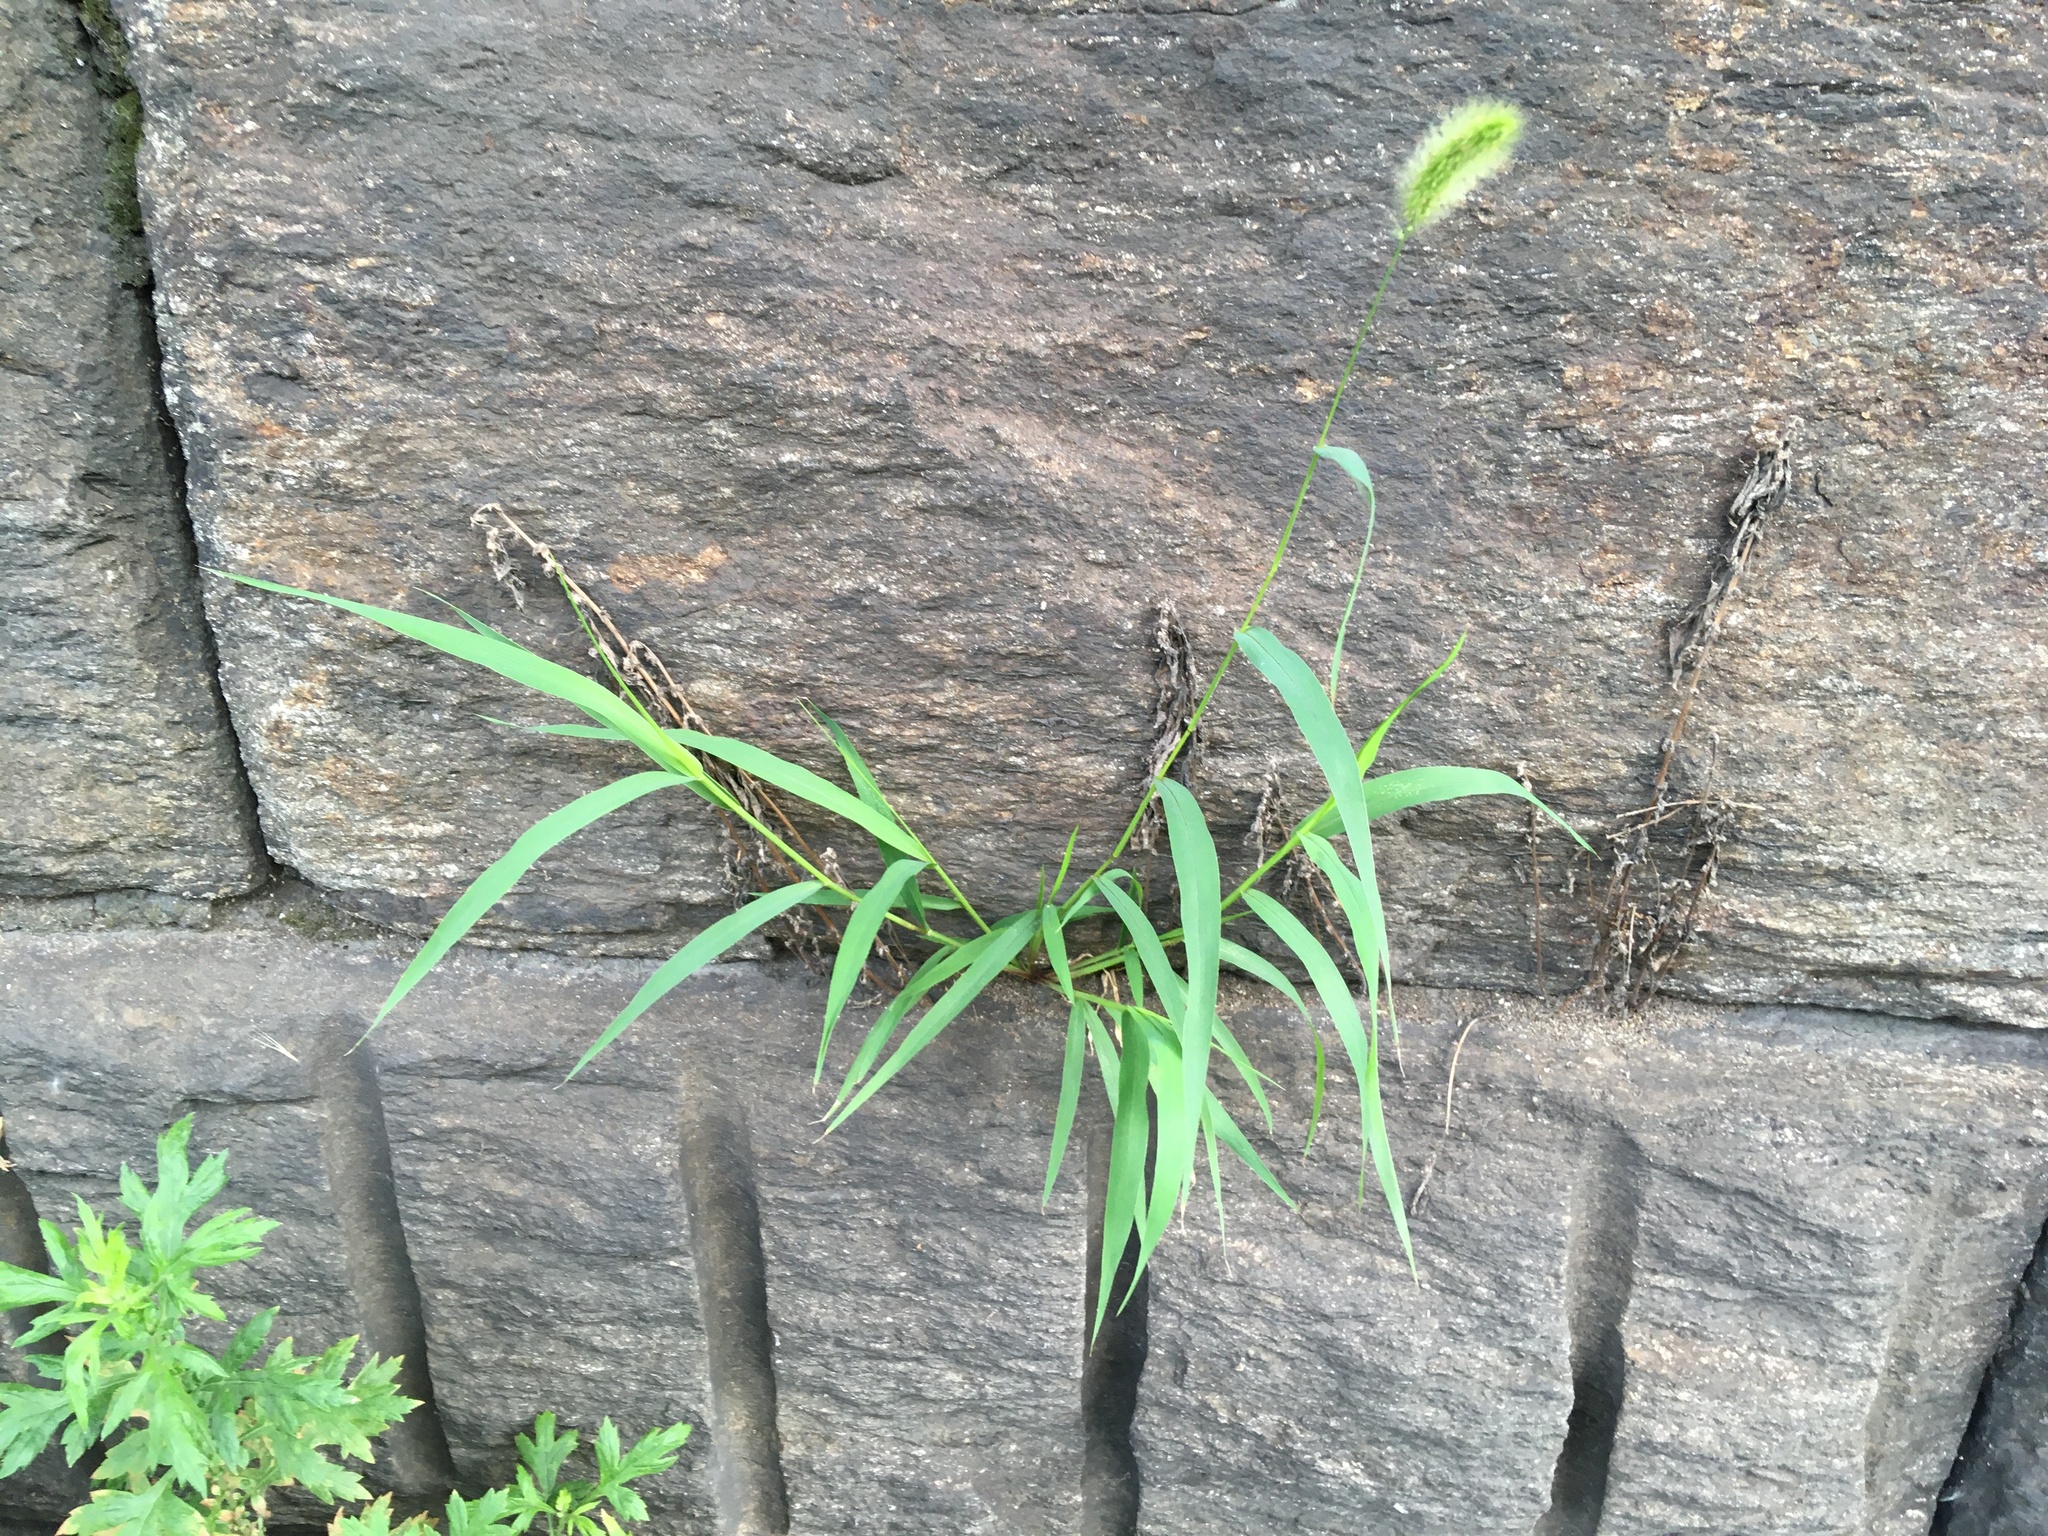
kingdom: Plantae
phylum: Tracheophyta
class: Liliopsida
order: Poales
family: Poaceae
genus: Setaria
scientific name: Setaria viridis
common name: Green bristlegrass
